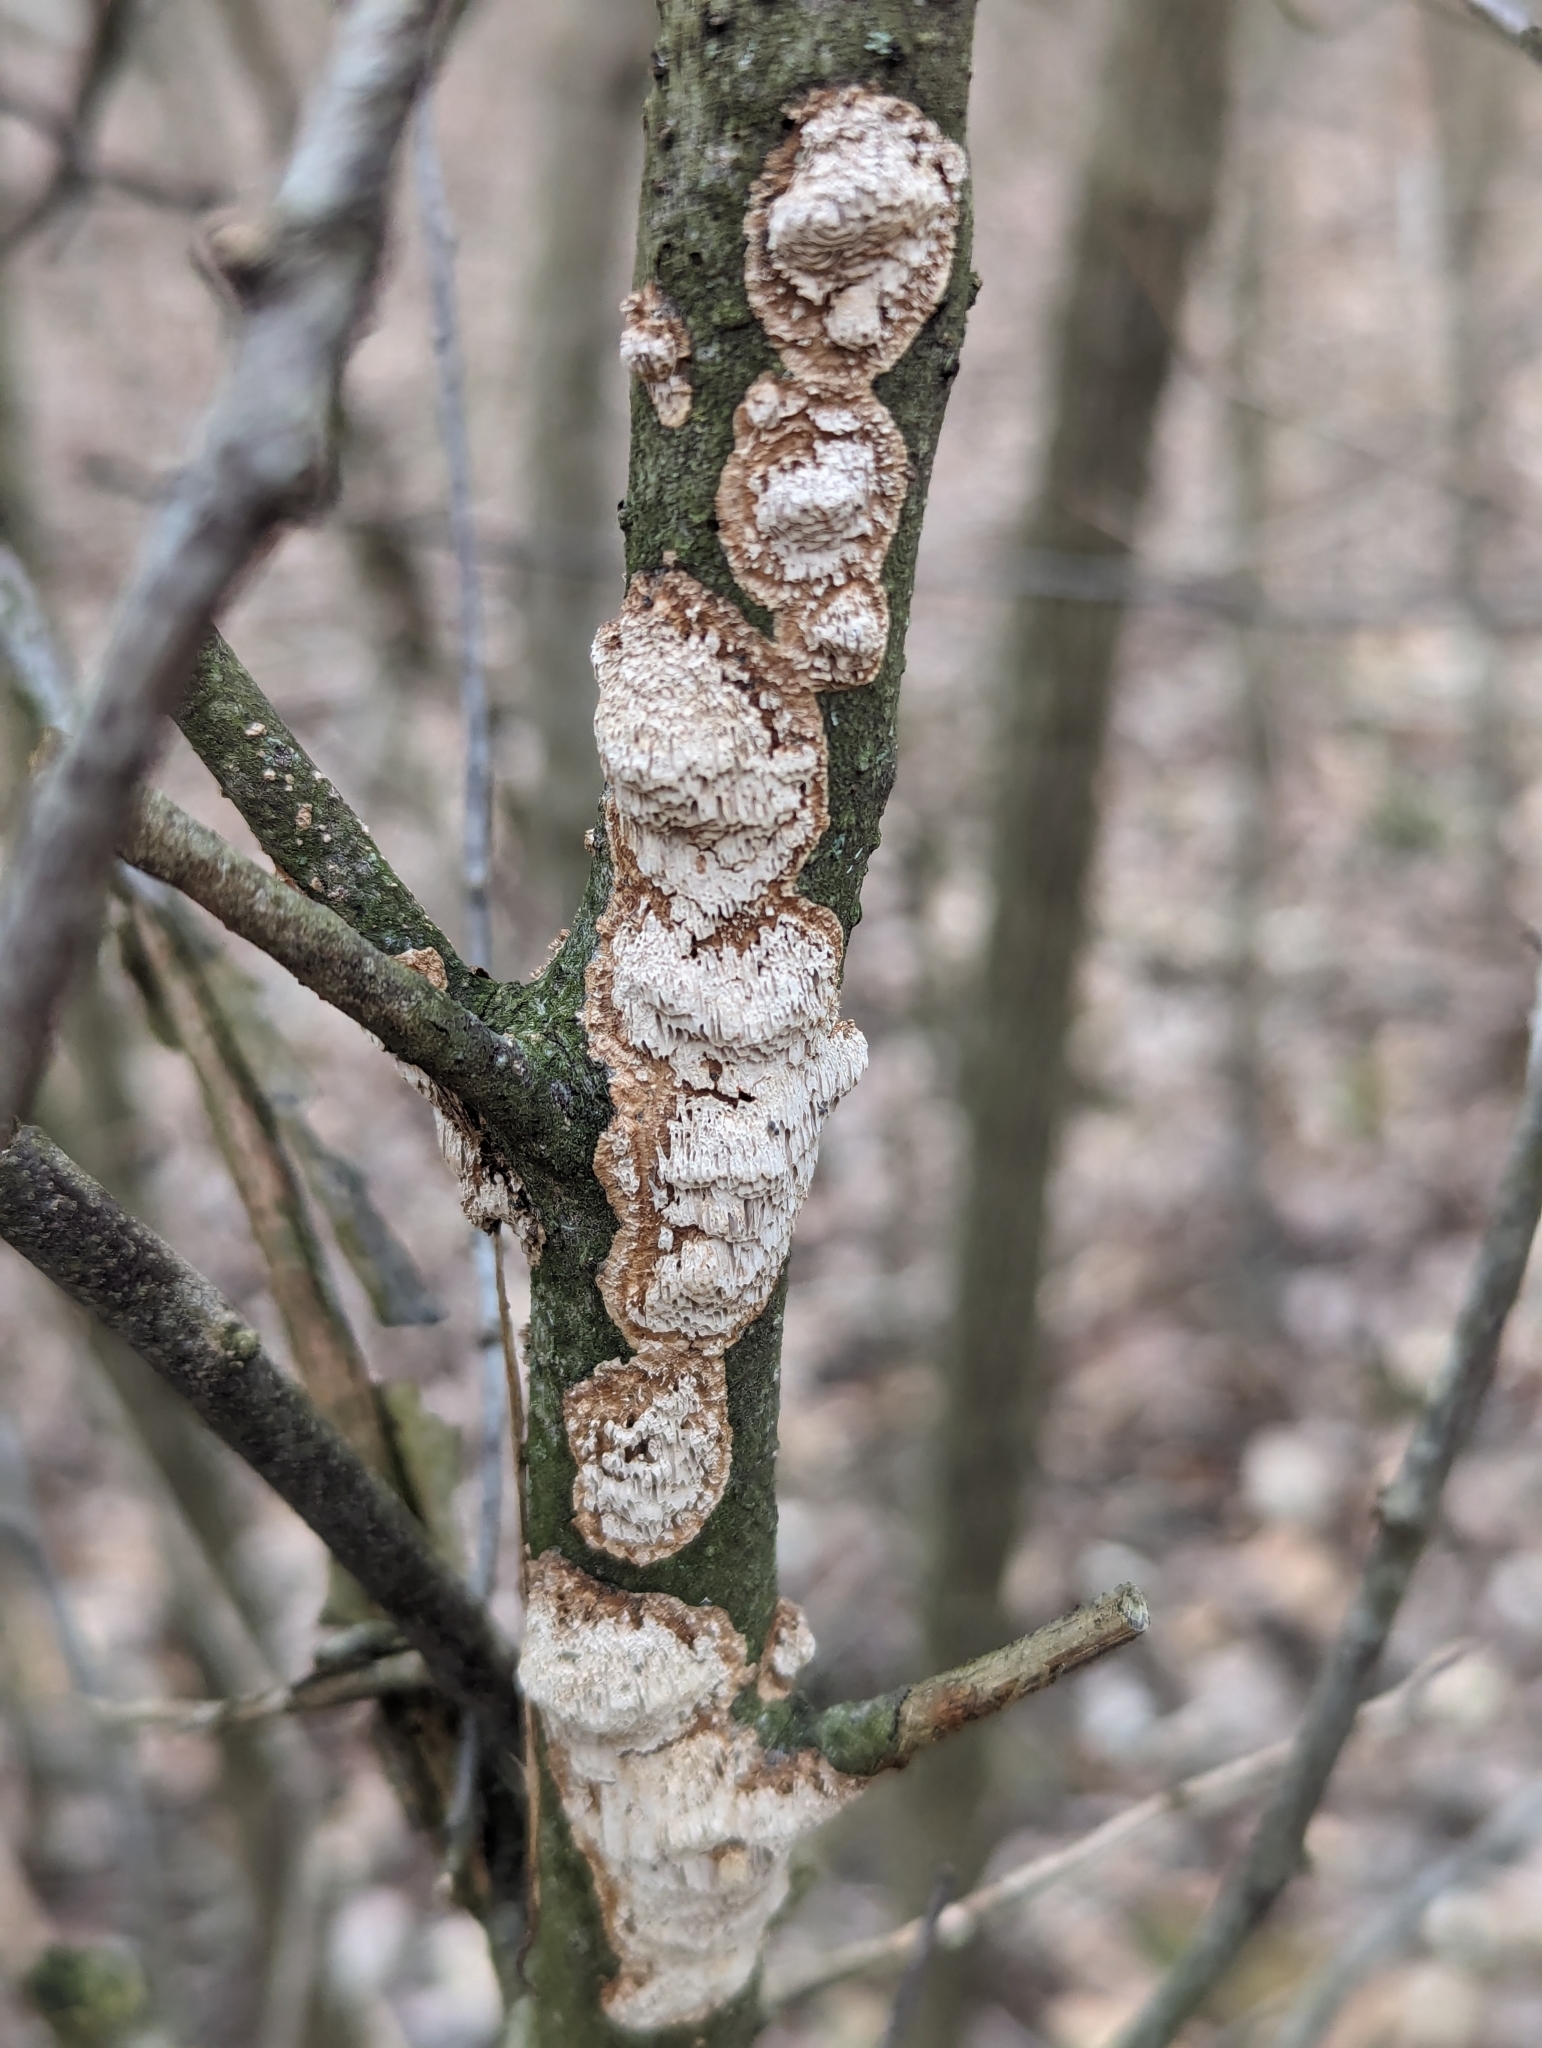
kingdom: Fungi
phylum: Basidiomycota
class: Agaricomycetes
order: Polyporales
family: Irpicaceae
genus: Irpex
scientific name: Irpex lacteus
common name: Milk-white toothed polypore
